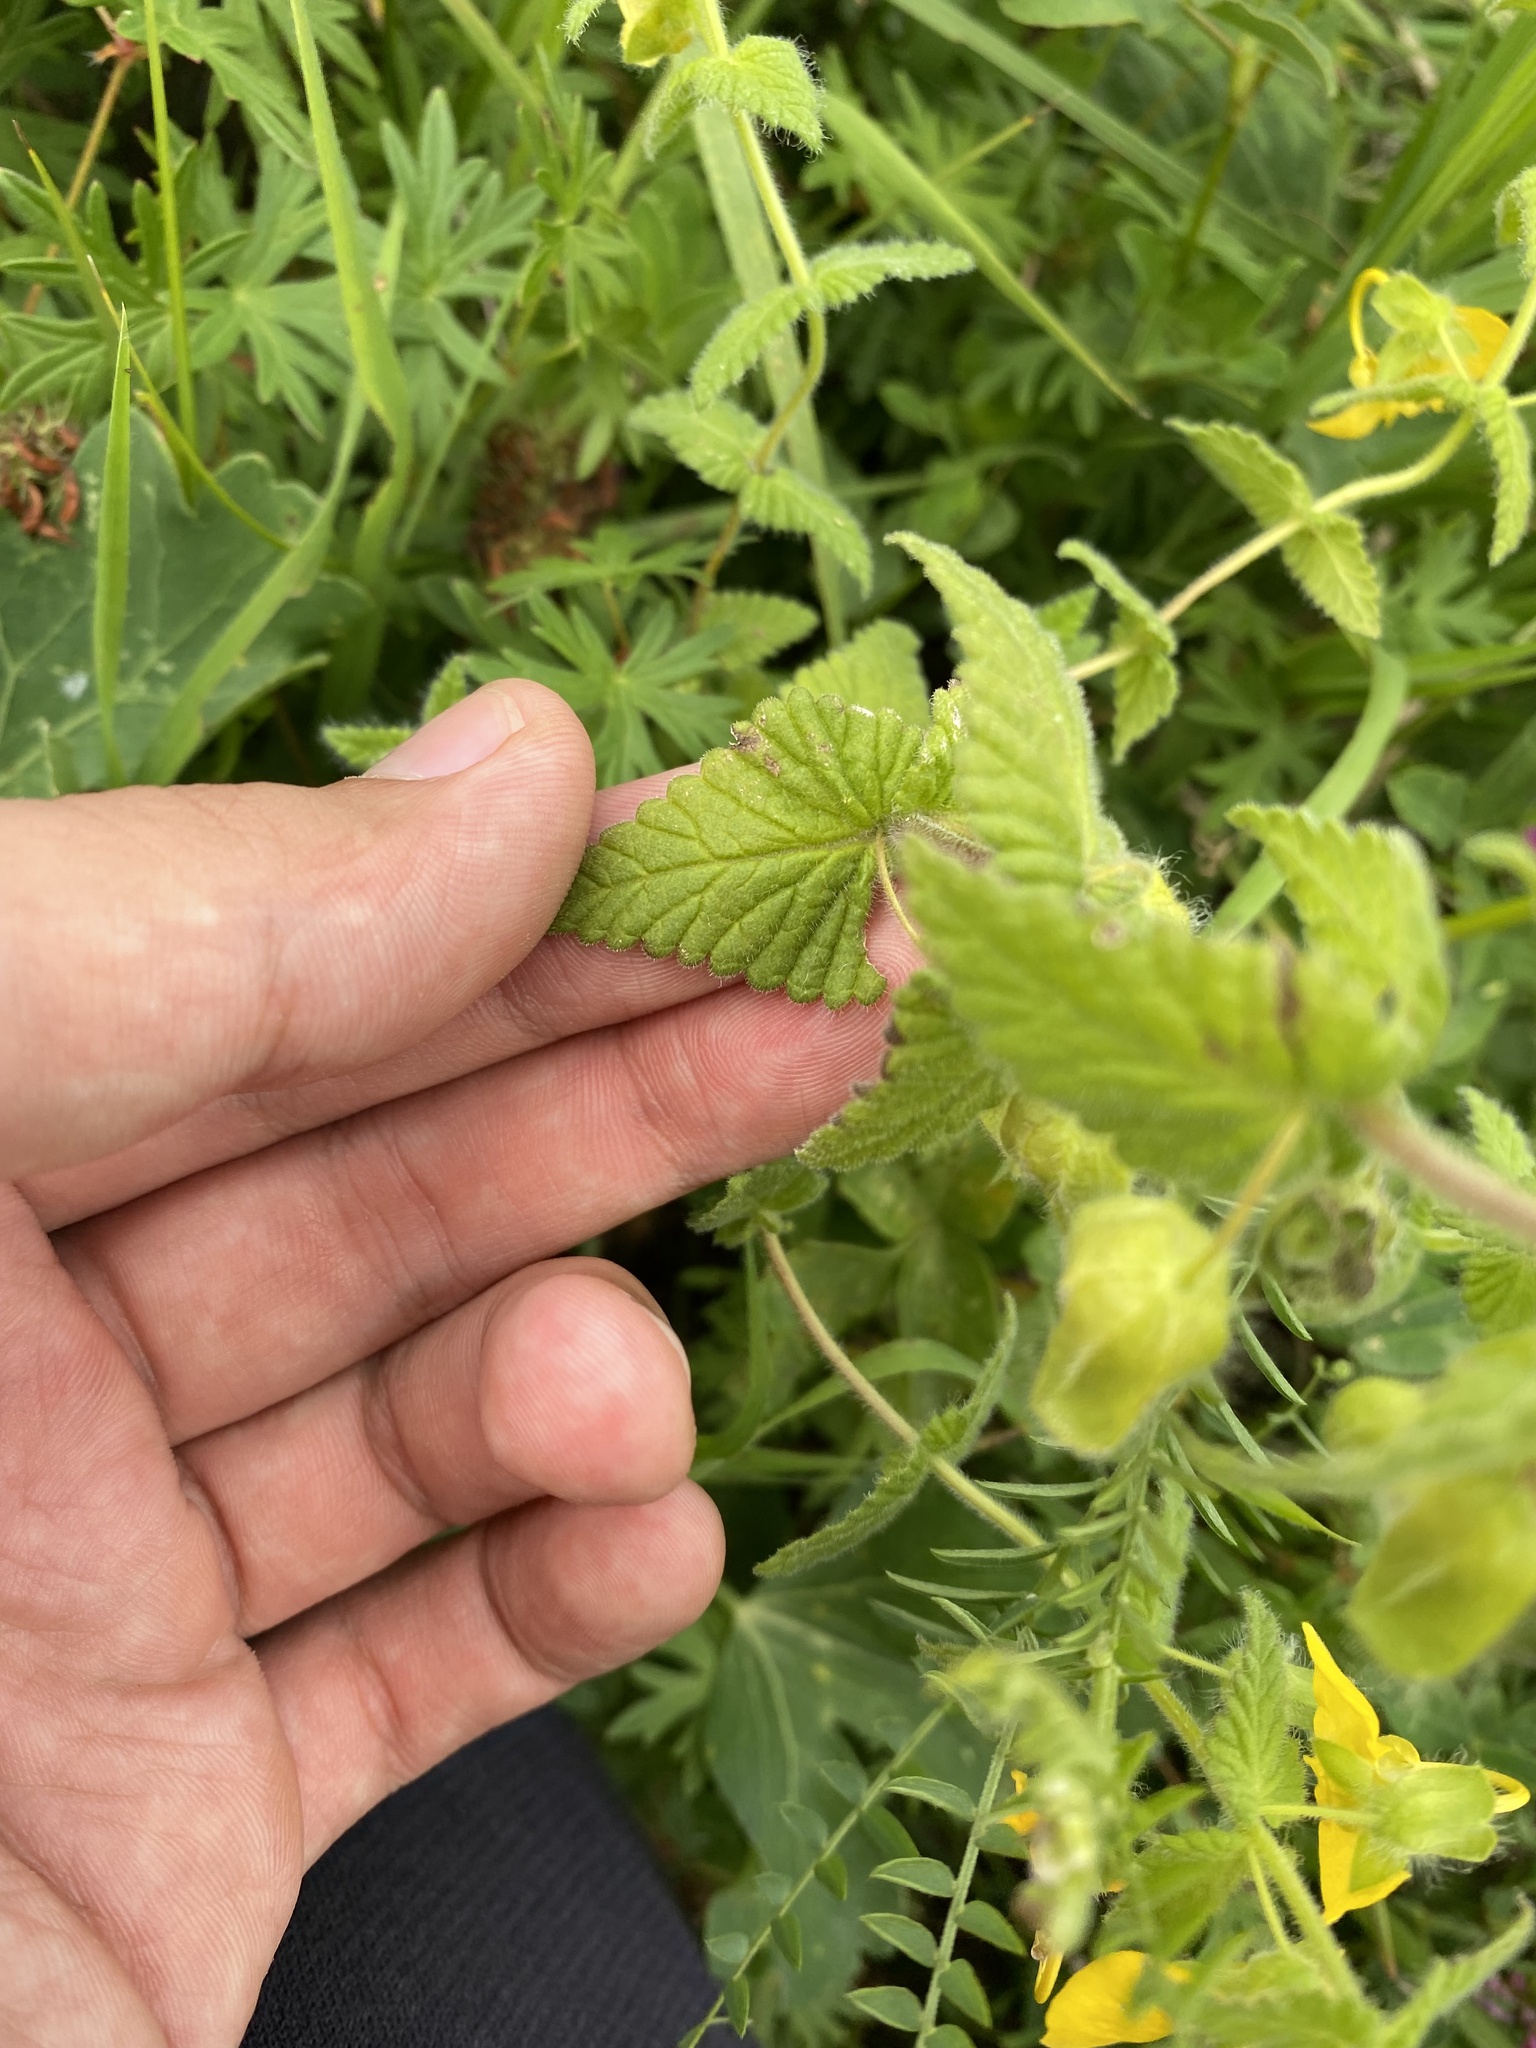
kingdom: Plantae
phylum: Tracheophyta
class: Magnoliopsida
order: Lamiales
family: Orobanchaceae
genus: Rhynchocorys
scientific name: Rhynchocorys orientalis
